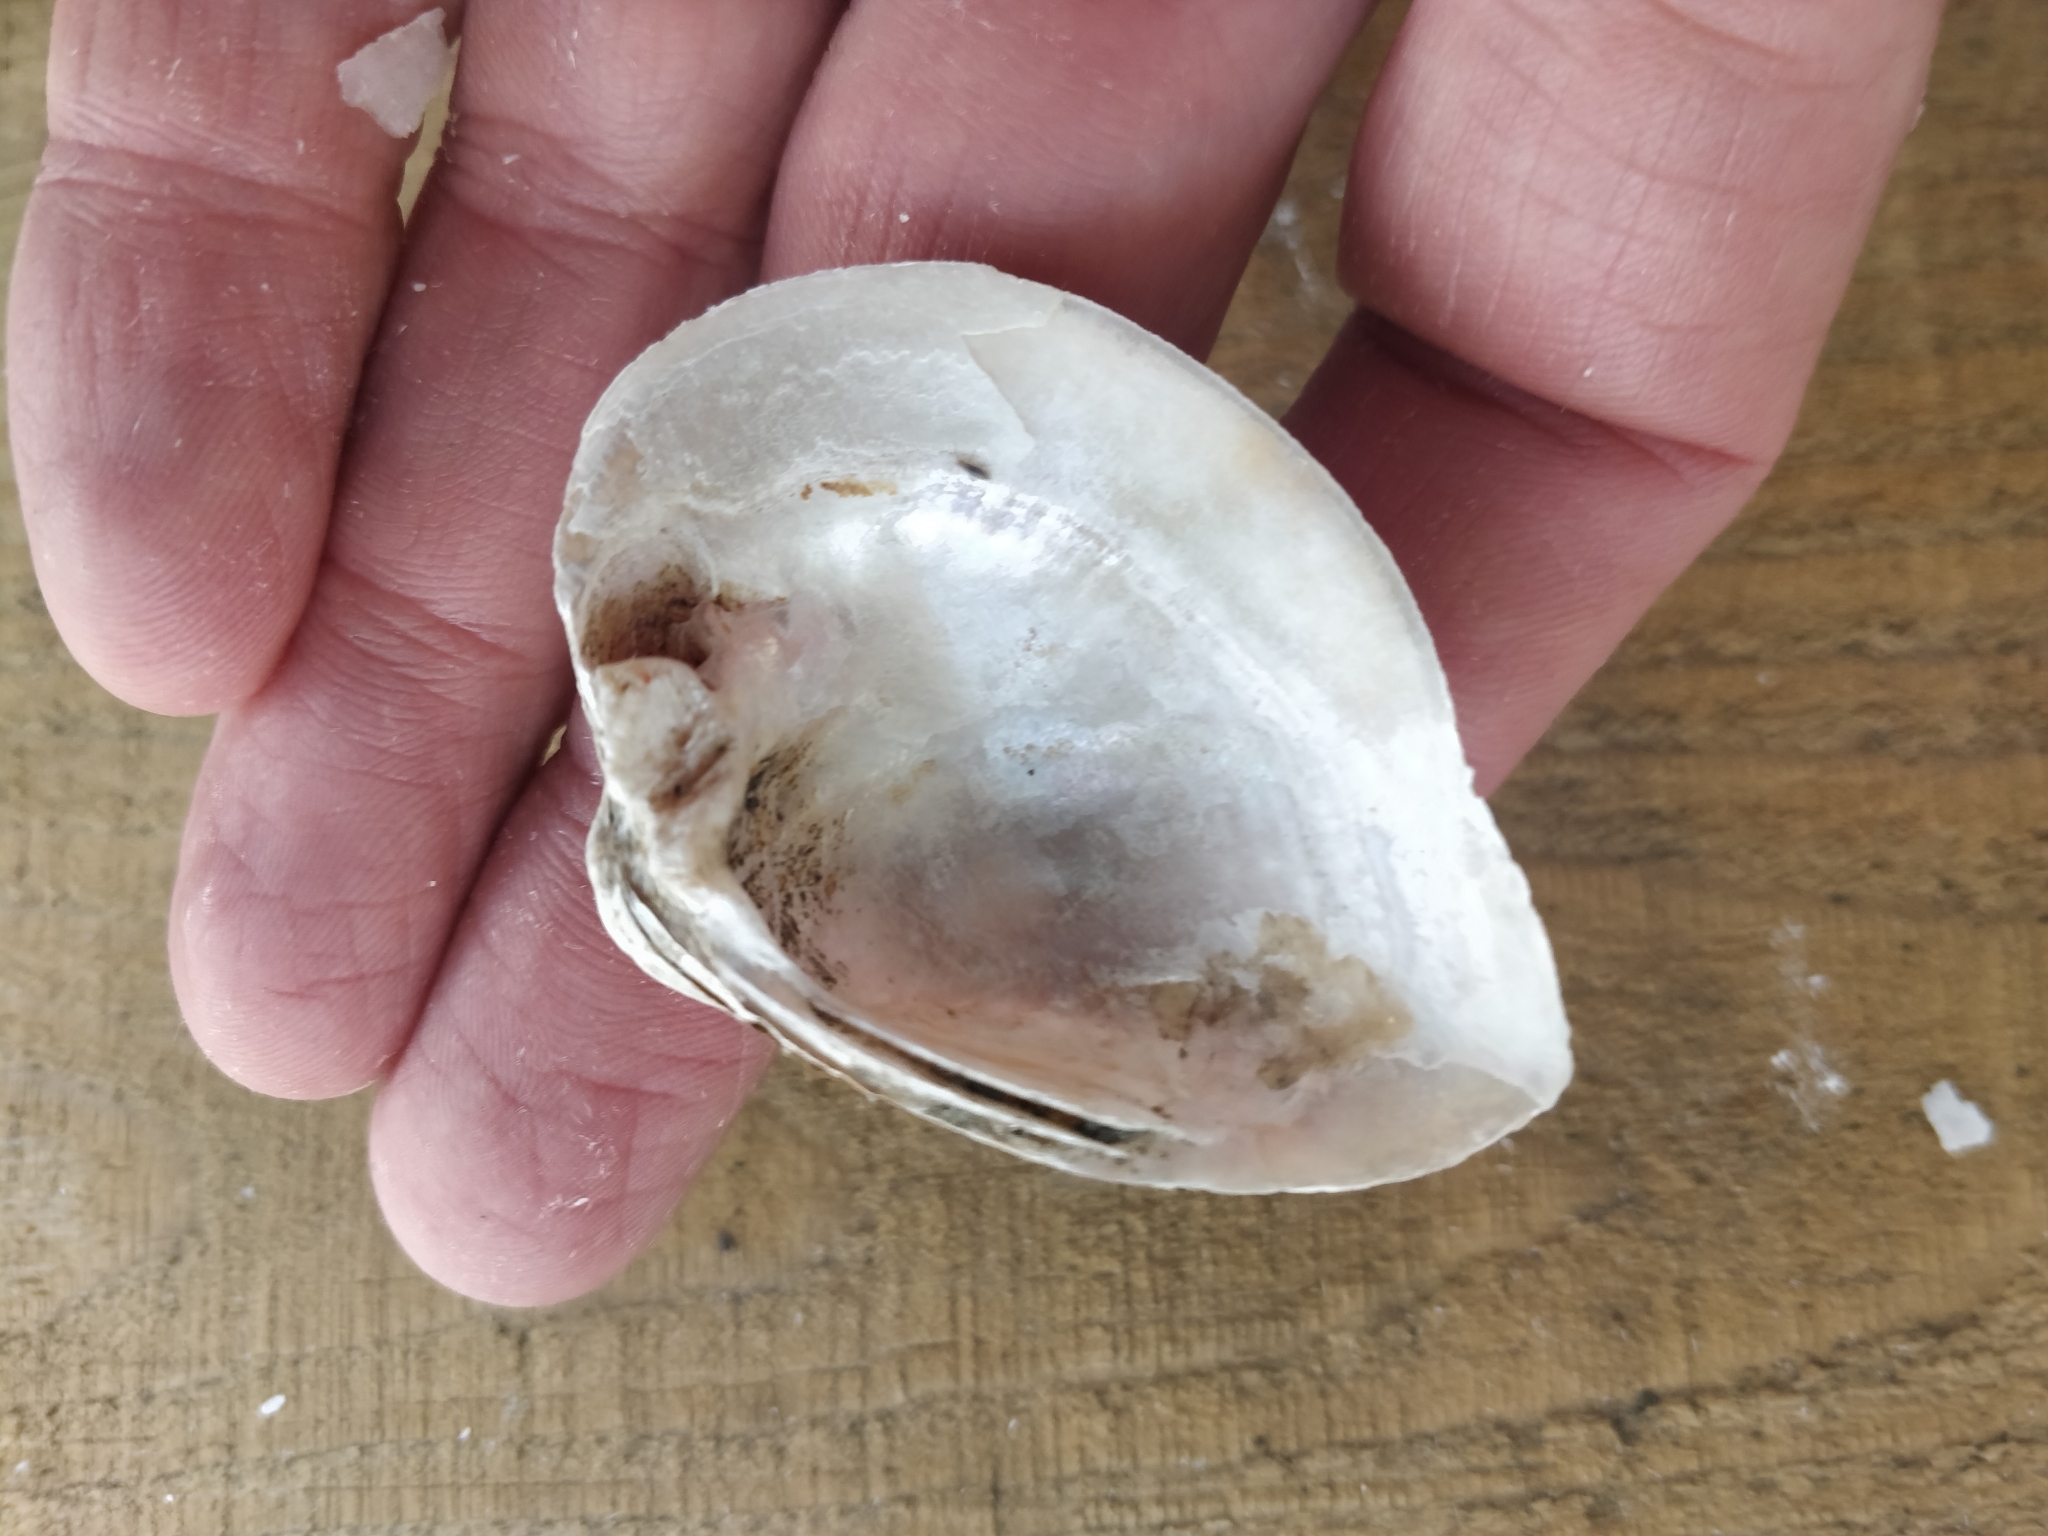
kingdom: Animalia
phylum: Mollusca
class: Bivalvia
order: Unionida
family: Unionidae
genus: Truncilla
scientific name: Truncilla truncata
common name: Deertoe
